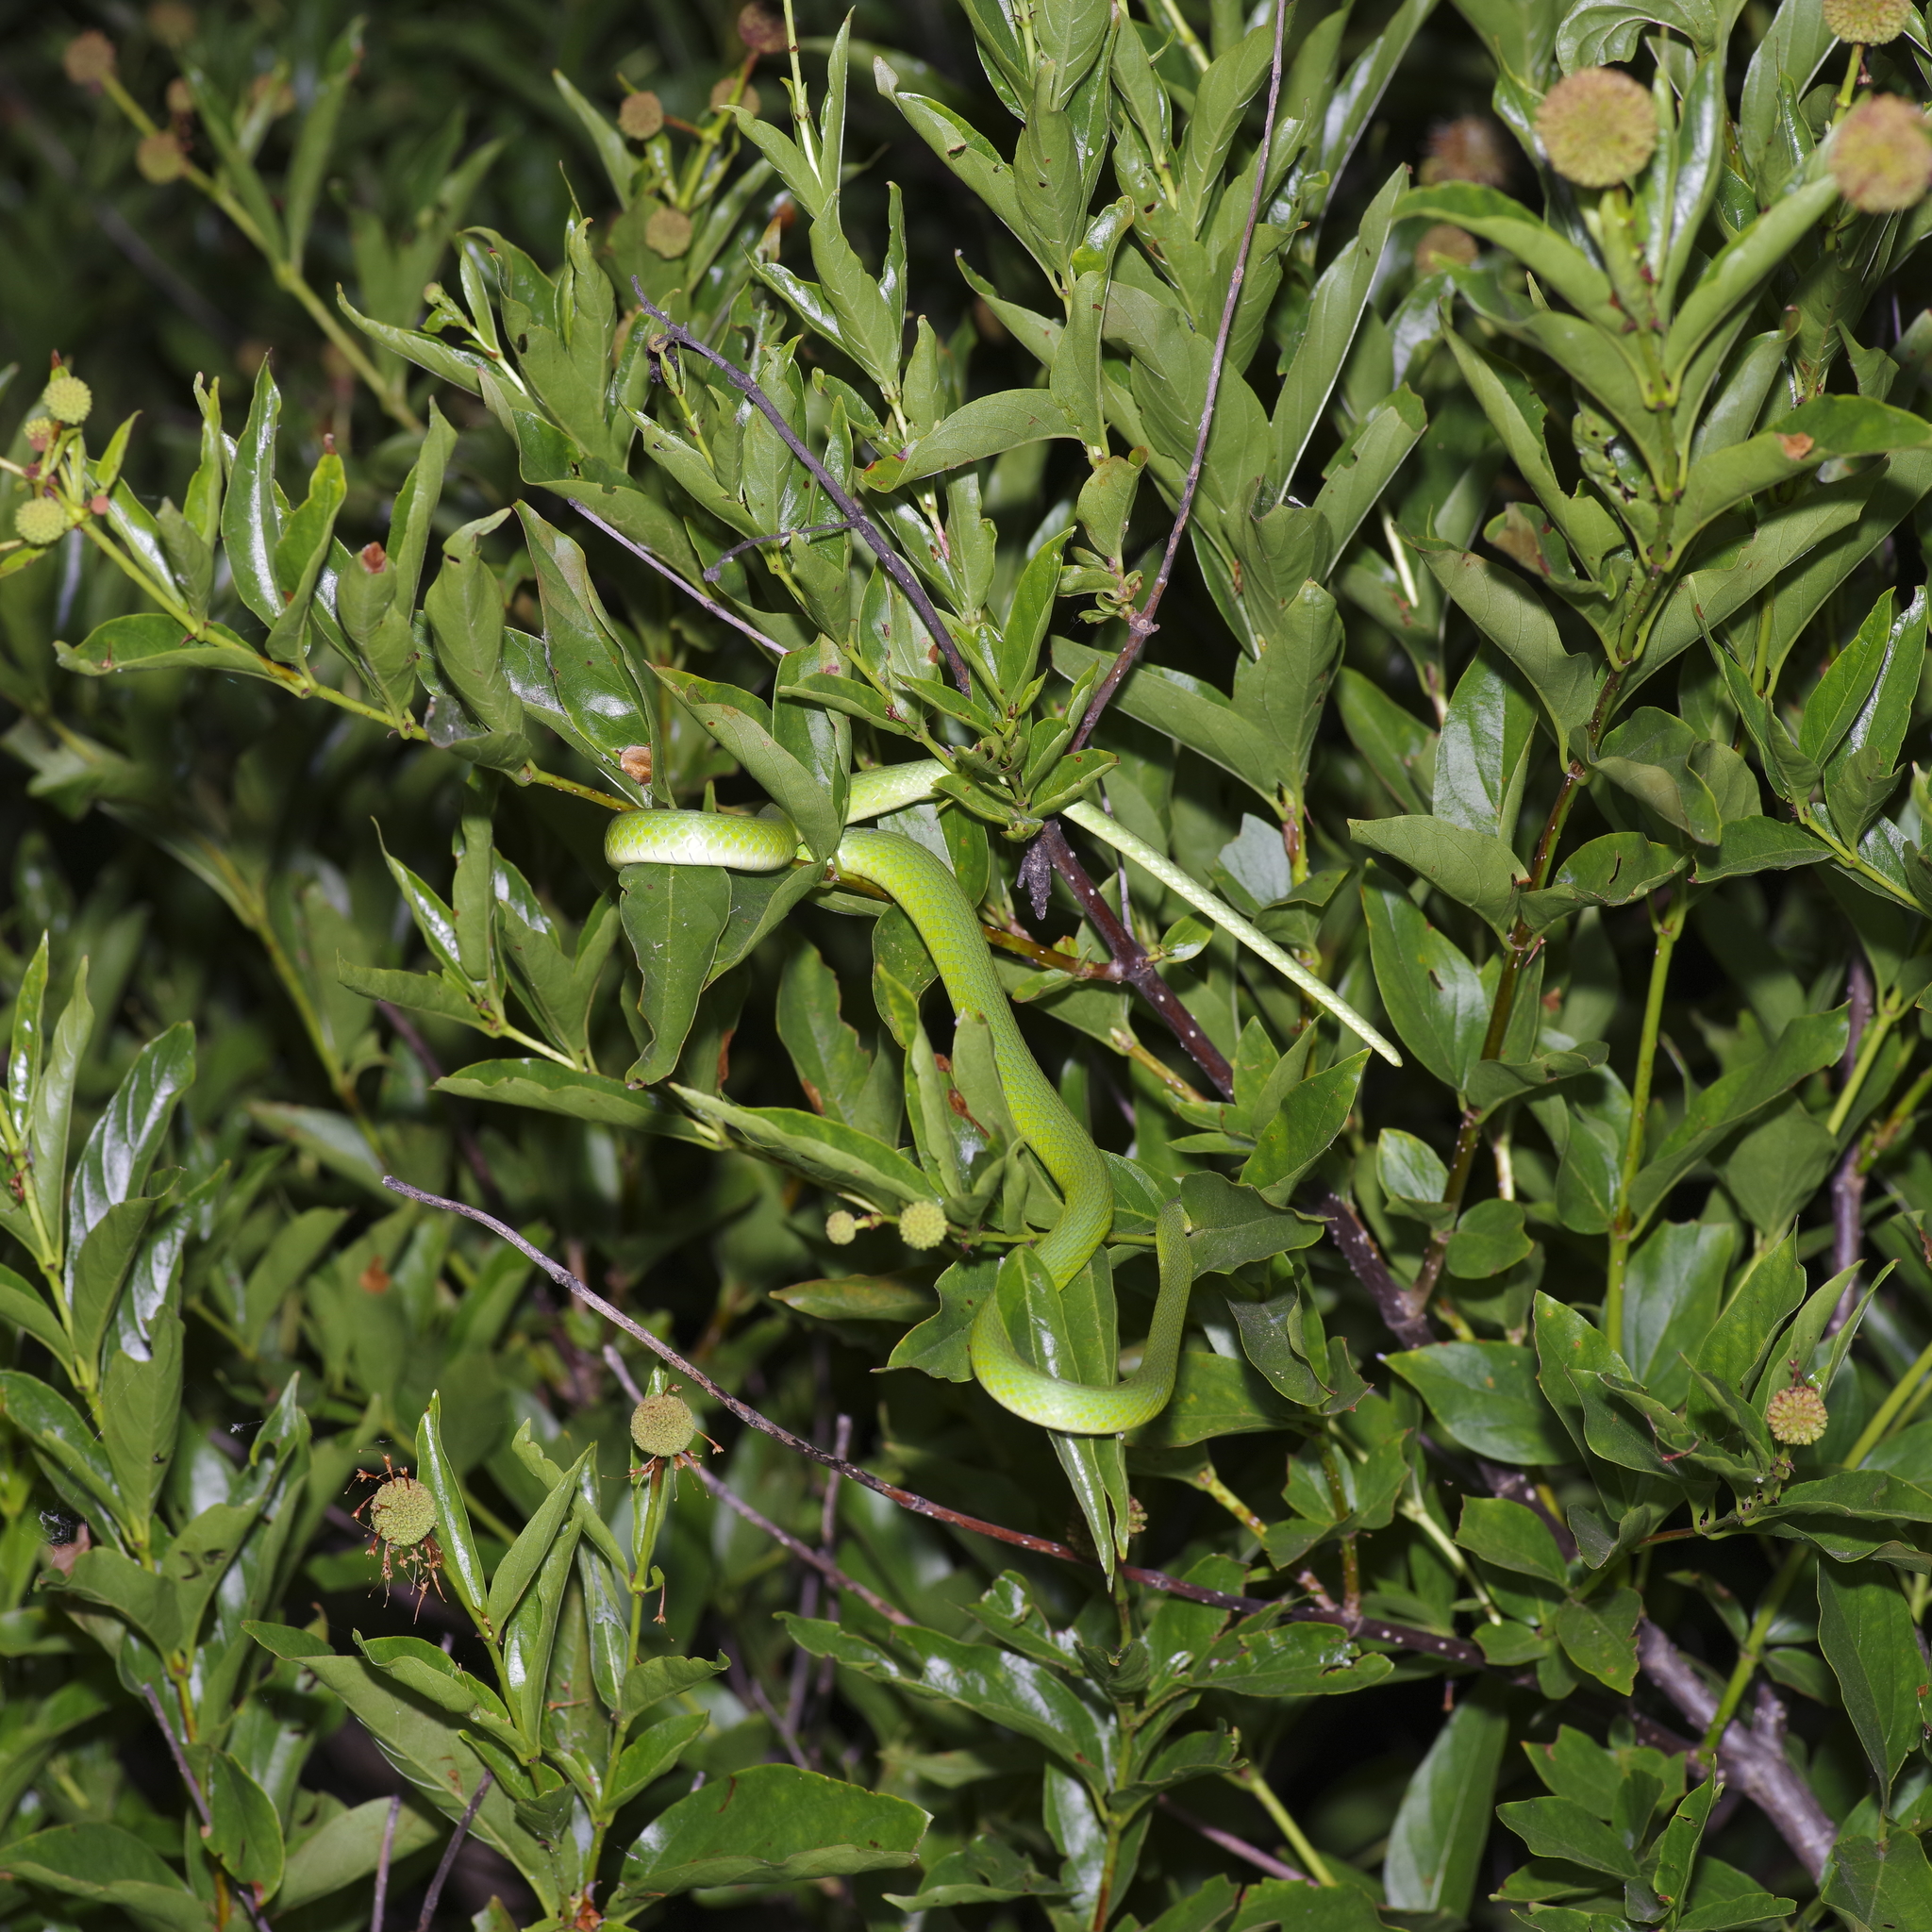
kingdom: Animalia
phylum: Chordata
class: Squamata
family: Colubridae
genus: Opheodrys
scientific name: Opheodrys aestivus
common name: Rough greensnake
